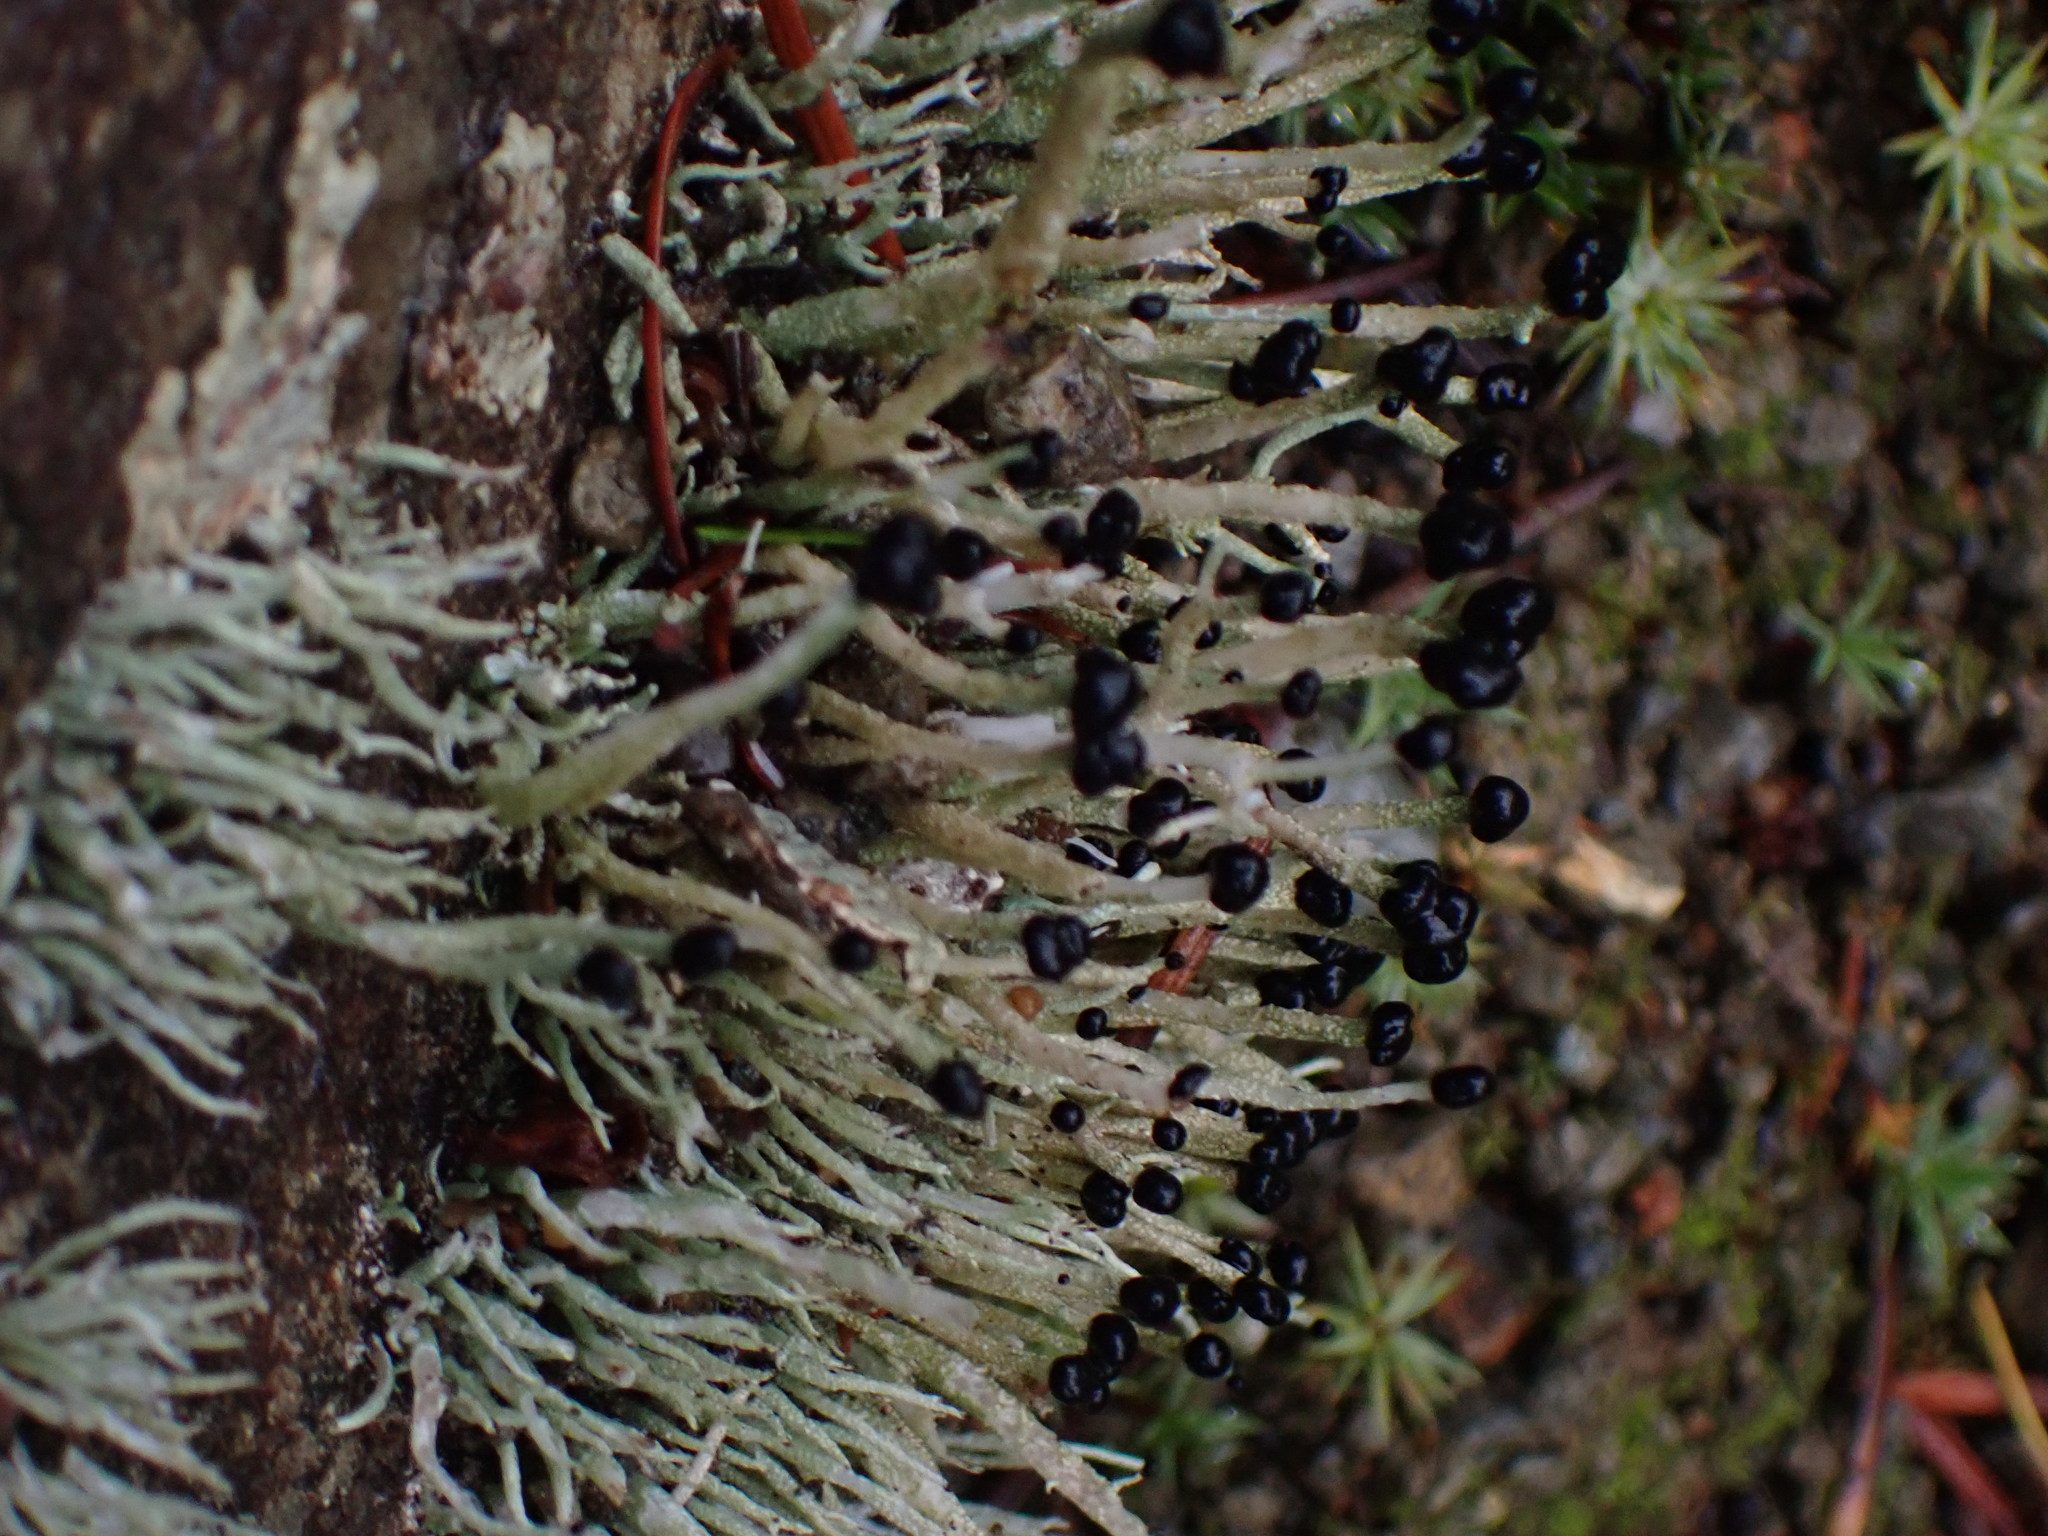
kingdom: Fungi
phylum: Ascomycota
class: Lecanoromycetes
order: Lecanorales
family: Cladoniaceae
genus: Pilophorus
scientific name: Pilophorus acicularis
